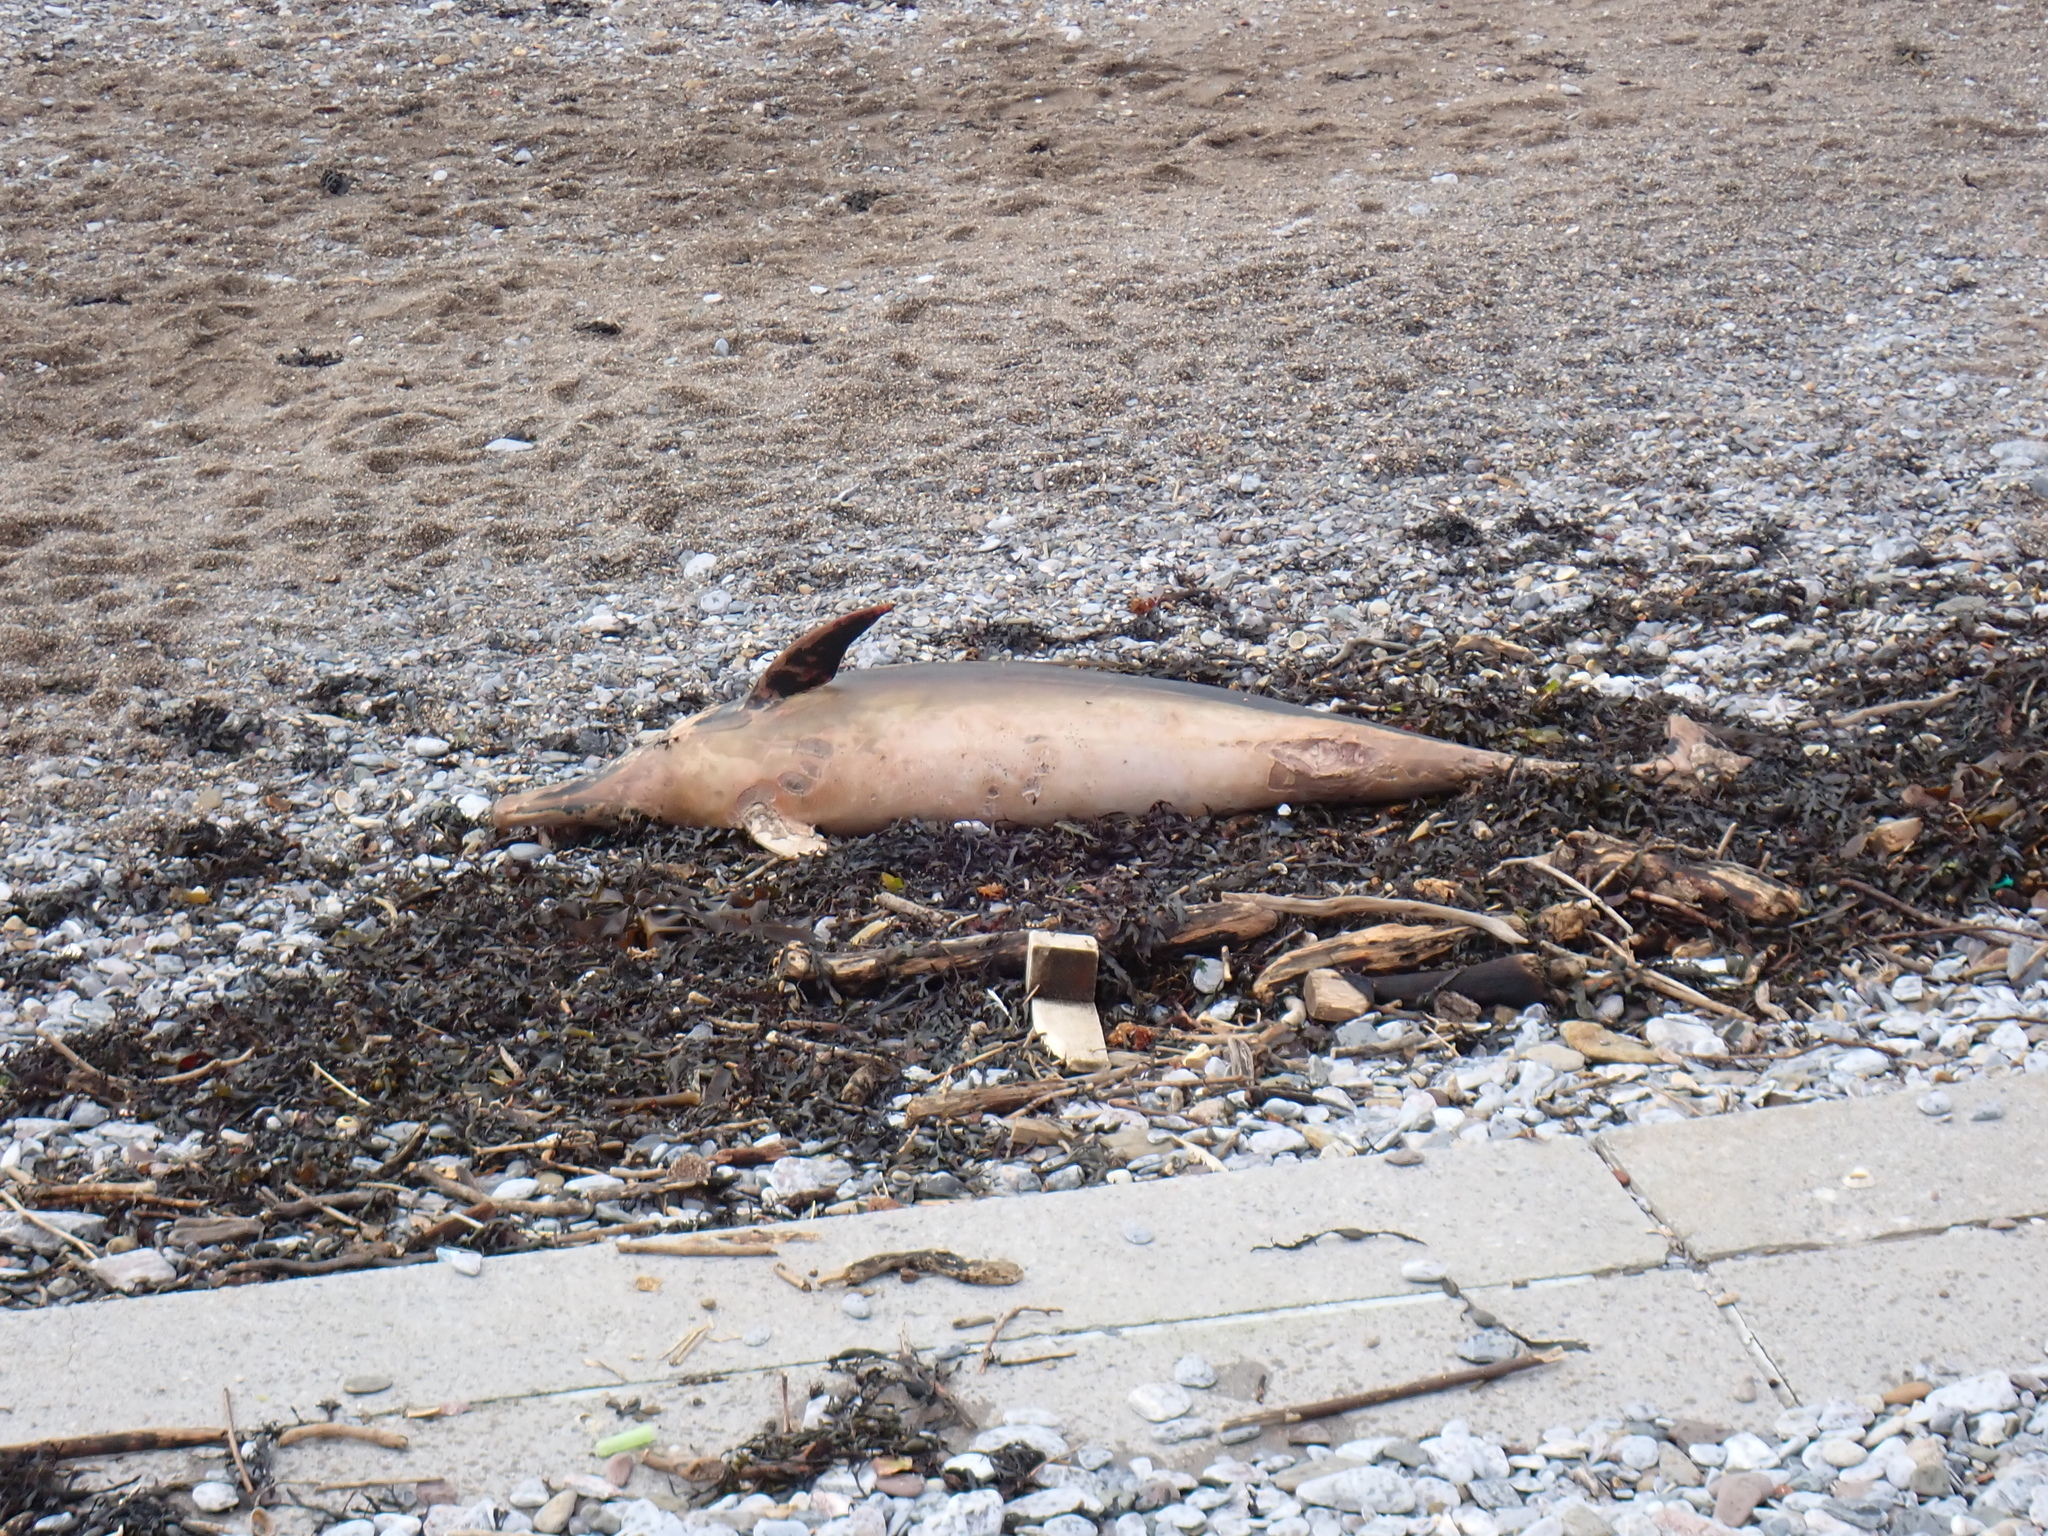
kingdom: Animalia
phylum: Chordata
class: Mammalia
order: Cetacea
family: Delphinidae
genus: Delphinus
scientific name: Delphinus delphis
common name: Common dolphin
